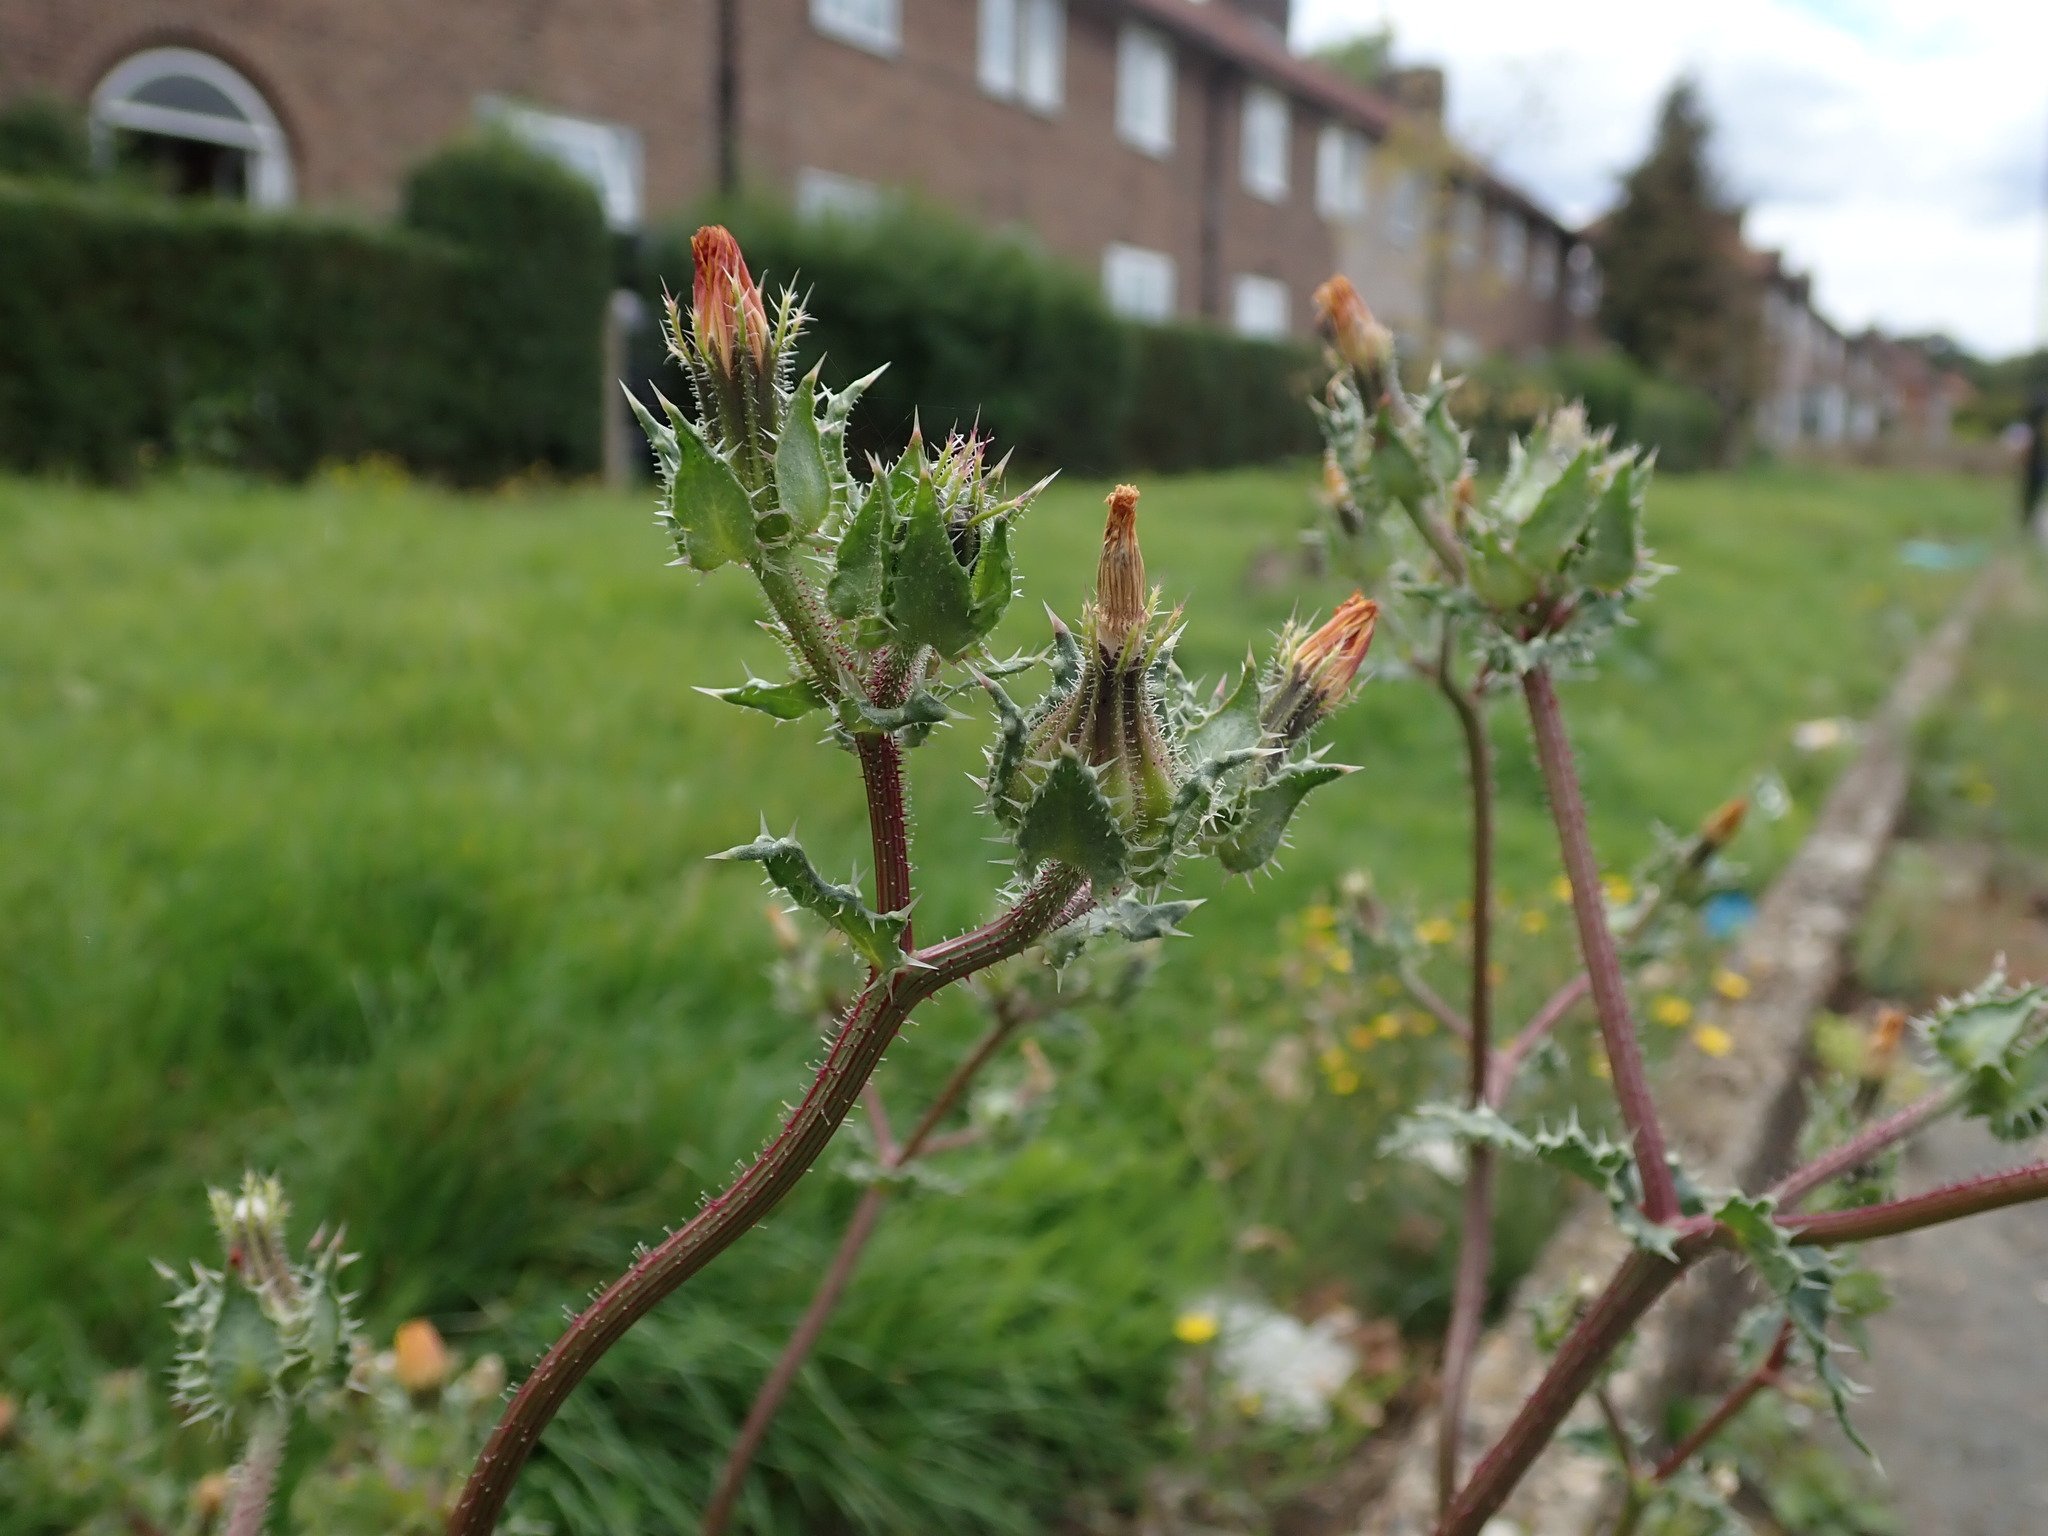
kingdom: Plantae
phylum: Tracheophyta
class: Magnoliopsida
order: Asterales
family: Asteraceae
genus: Helminthotheca
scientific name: Helminthotheca echioides
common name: Ox-tongue
